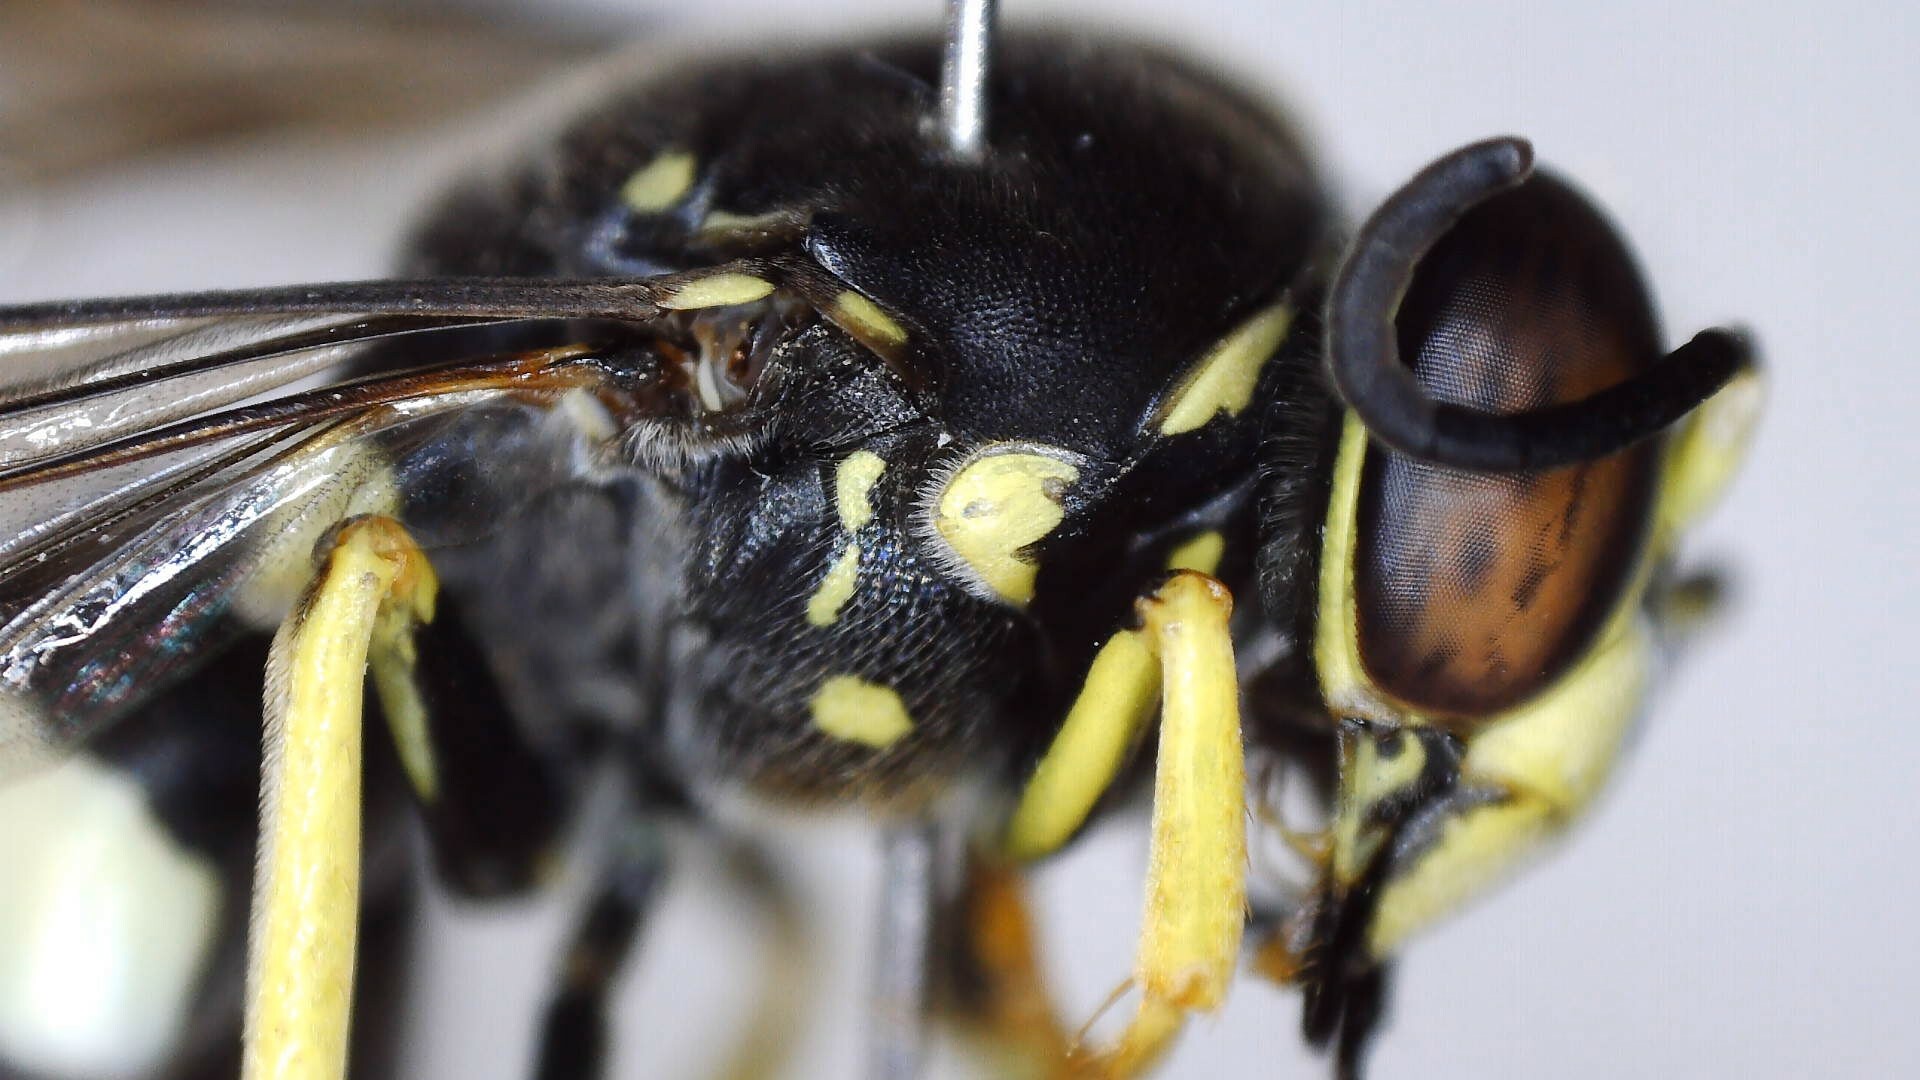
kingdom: Animalia
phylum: Arthropoda
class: Insecta
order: Hymenoptera
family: Crabronidae
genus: Bicyrtes
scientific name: Bicyrtes quadrifasciatus
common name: Four-banded stink bug hunter wasp
